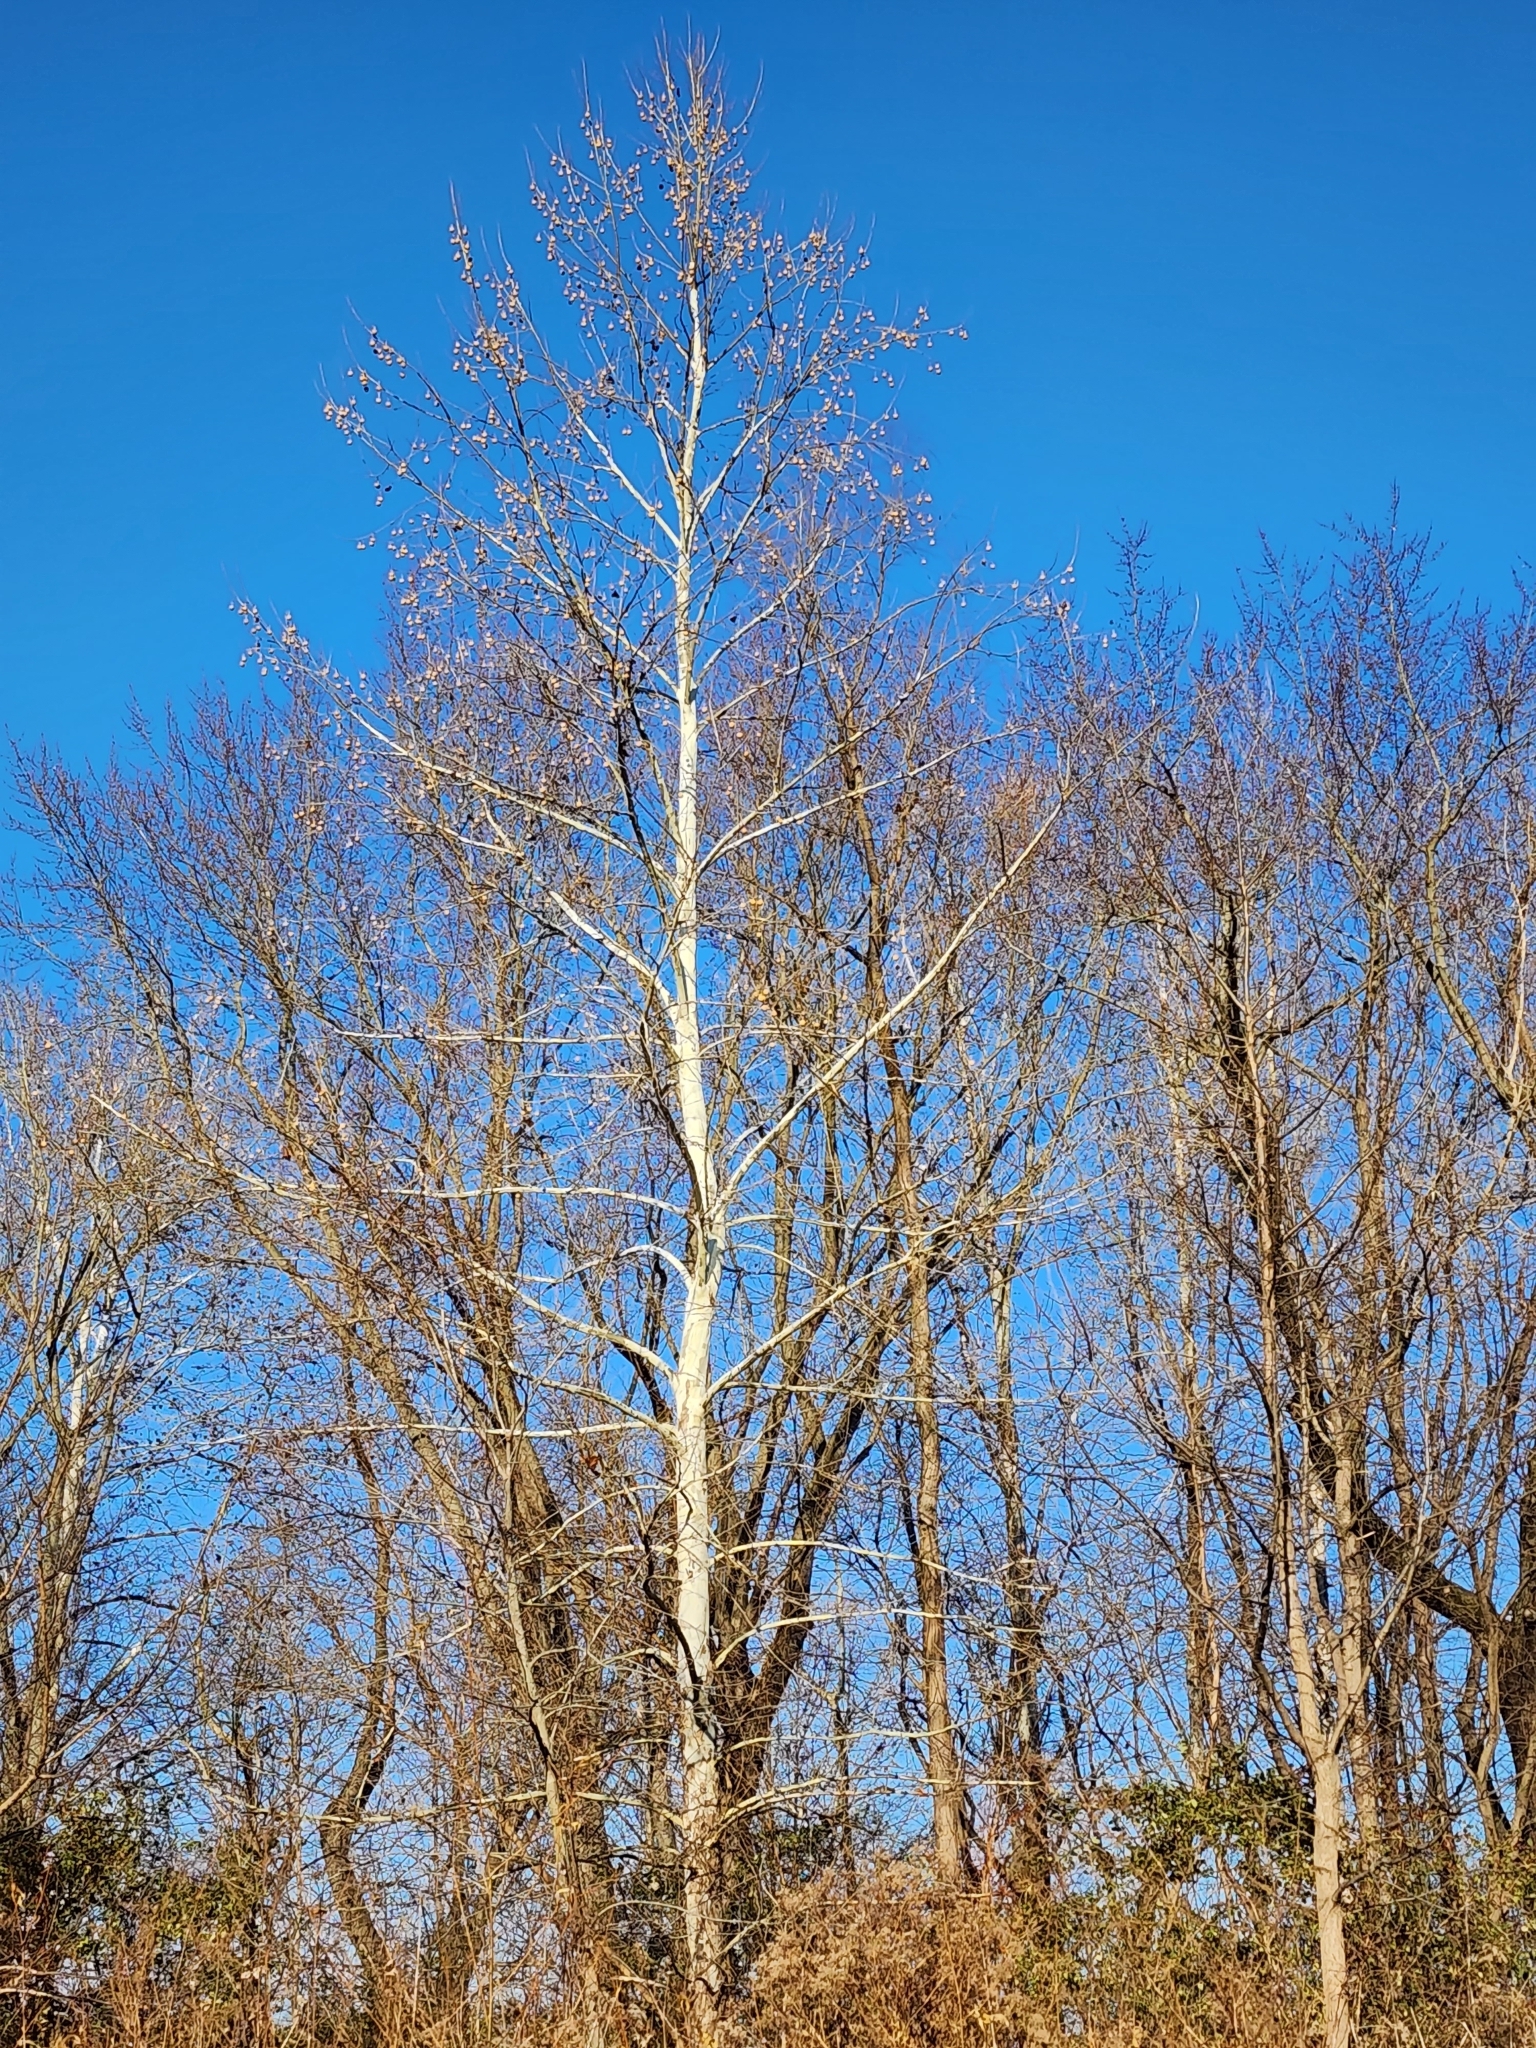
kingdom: Plantae
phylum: Tracheophyta
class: Magnoliopsida
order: Proteales
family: Platanaceae
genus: Platanus
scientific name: Platanus occidentalis
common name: American sycamore
